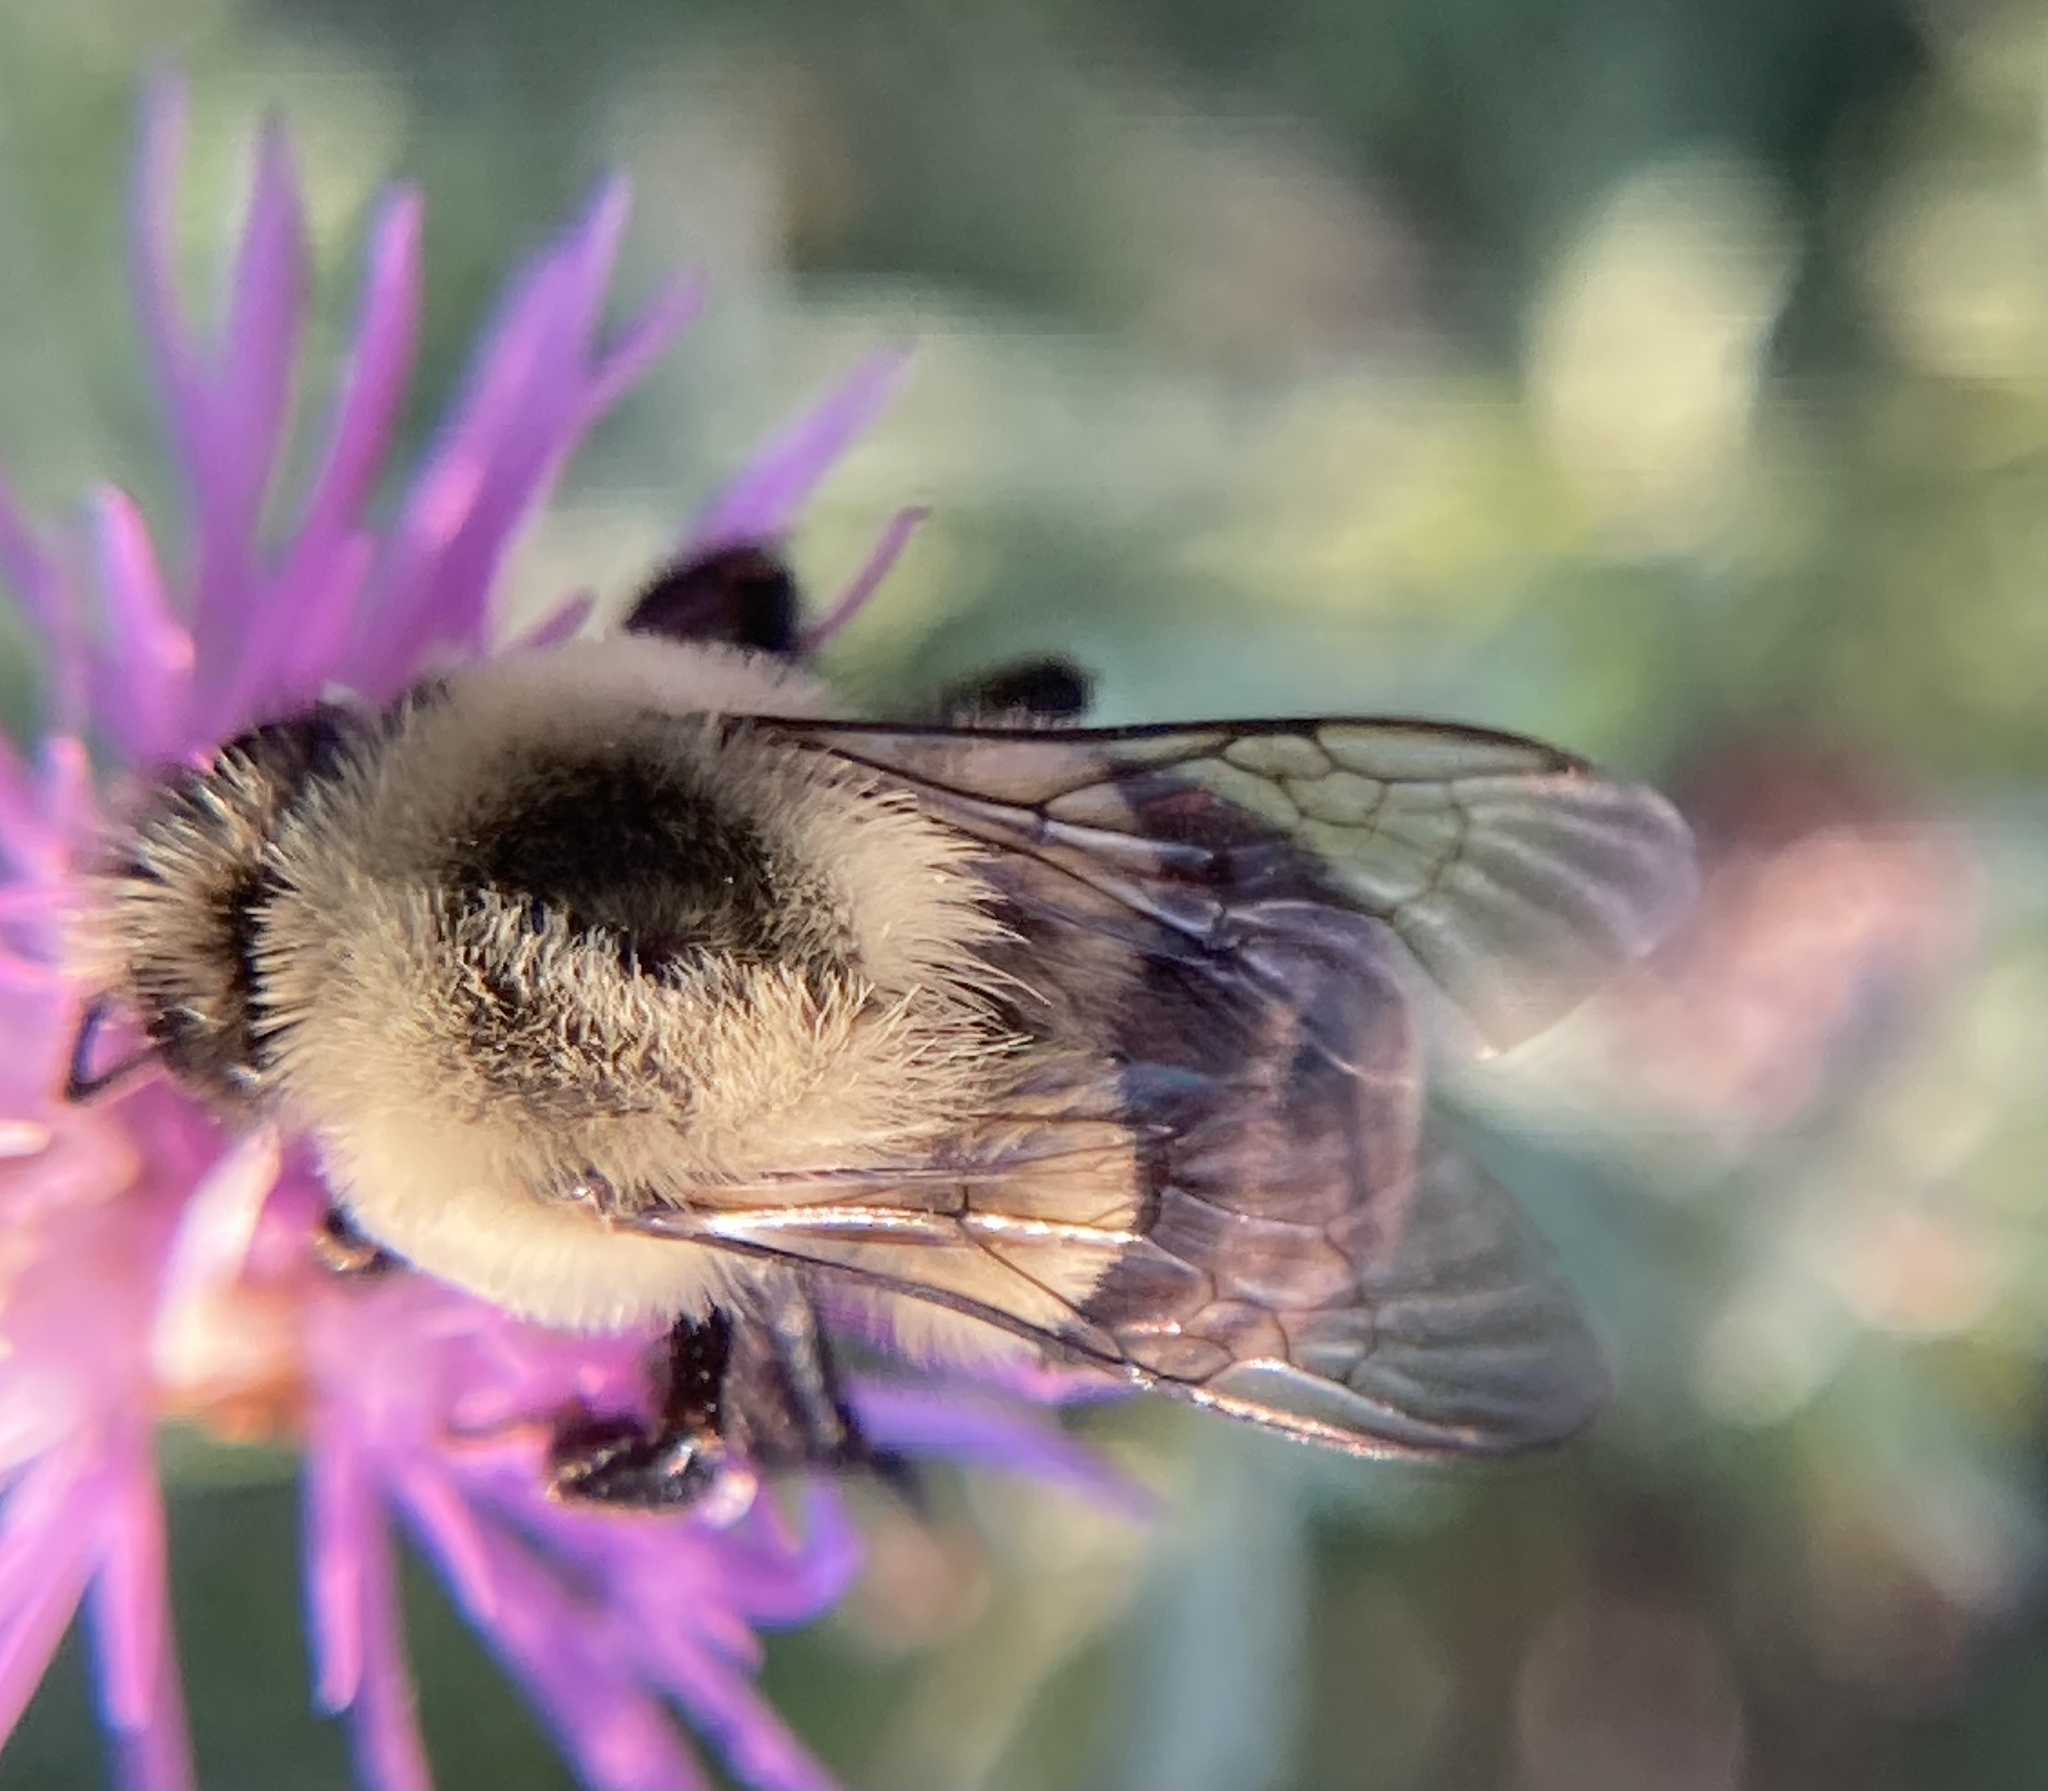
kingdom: Animalia
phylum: Arthropoda
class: Insecta
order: Hymenoptera
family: Apidae
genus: Bombus
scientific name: Bombus impatiens
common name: Common eastern bumble bee
